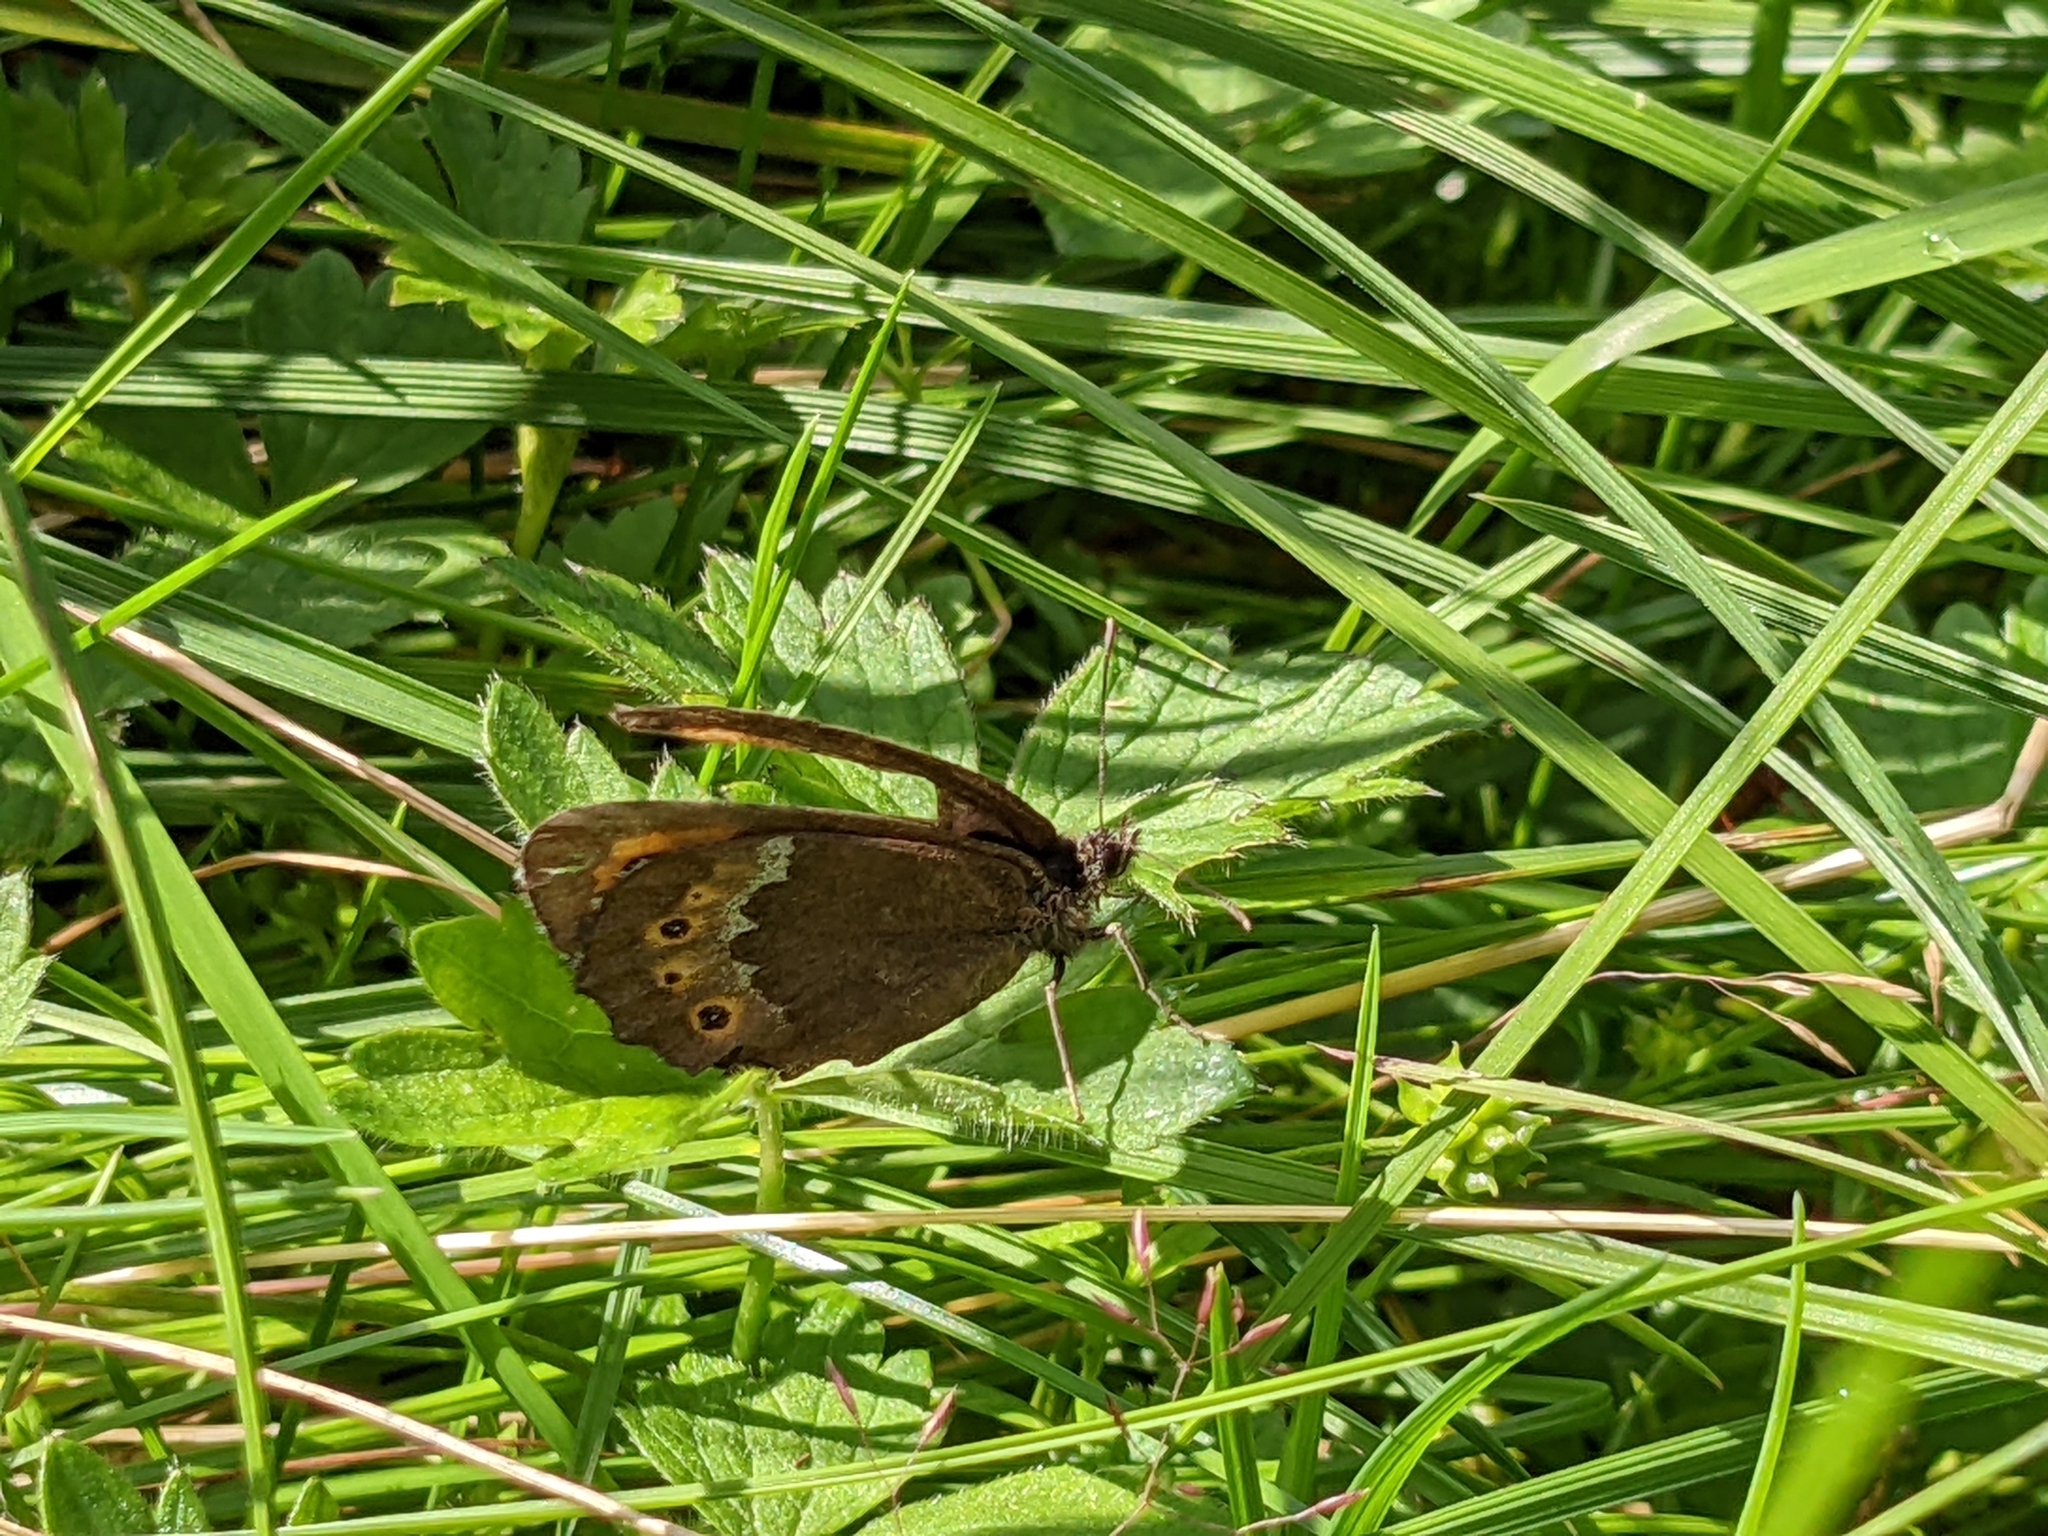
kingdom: Animalia
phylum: Arthropoda
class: Insecta
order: Lepidoptera
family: Nymphalidae
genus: Erebia
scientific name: Erebia ligea
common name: Arran brown
